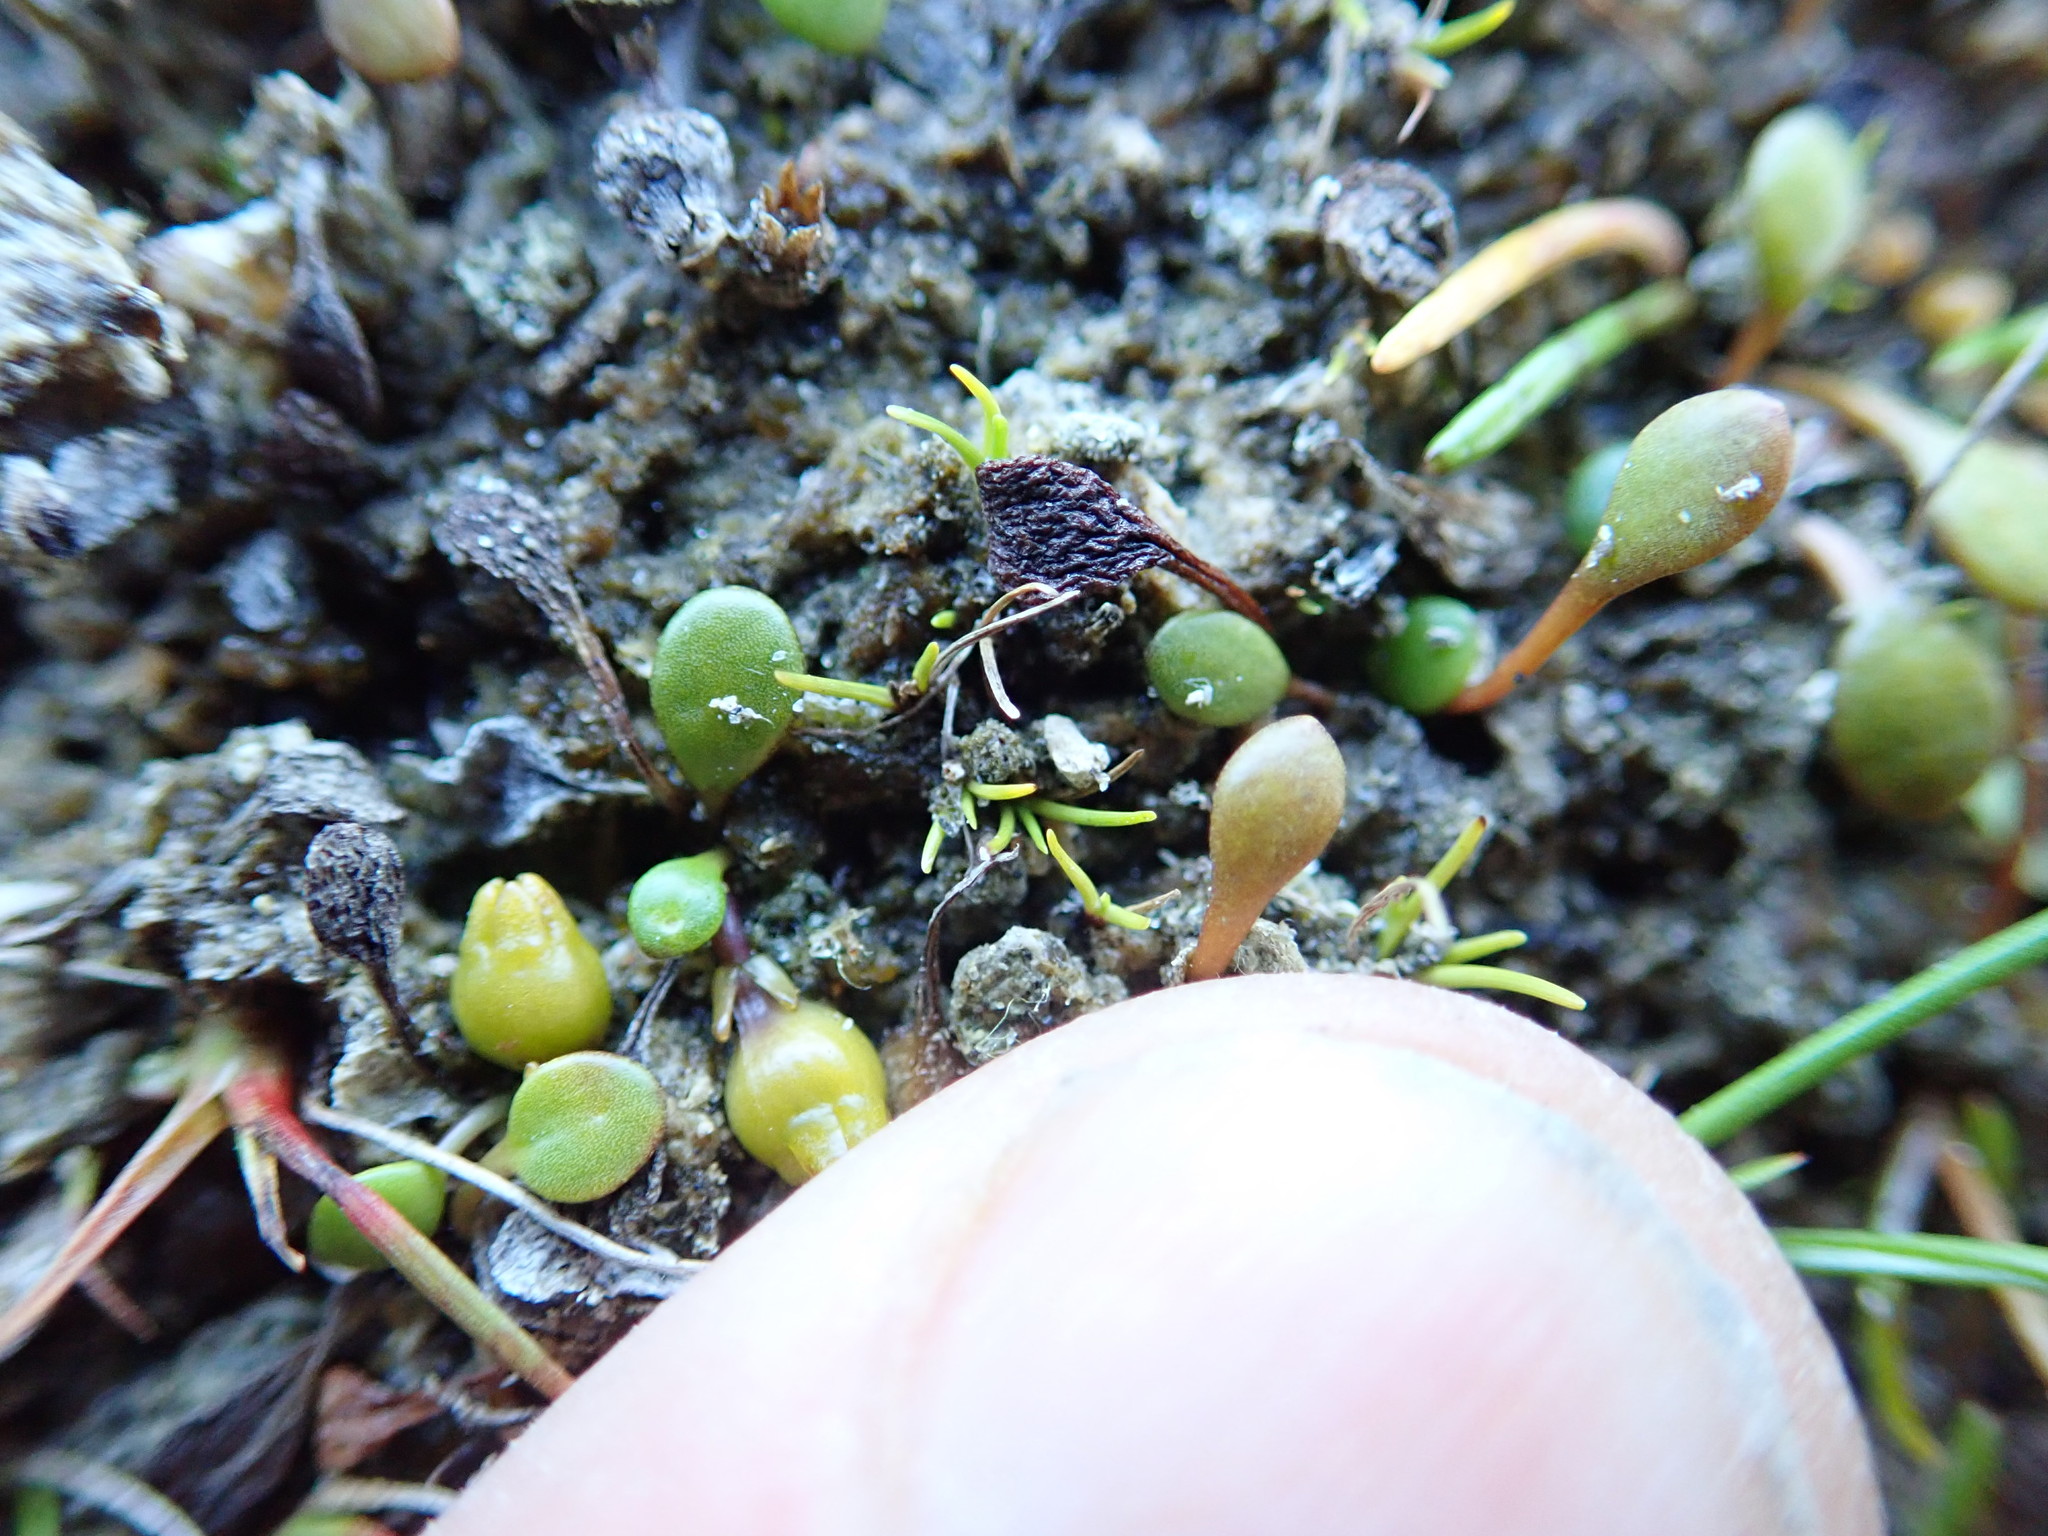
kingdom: Plantae
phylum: Tracheophyta
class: Magnoliopsida
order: Asterales
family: Goodeniaceae
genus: Goodenia
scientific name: Goodenia heenanii
